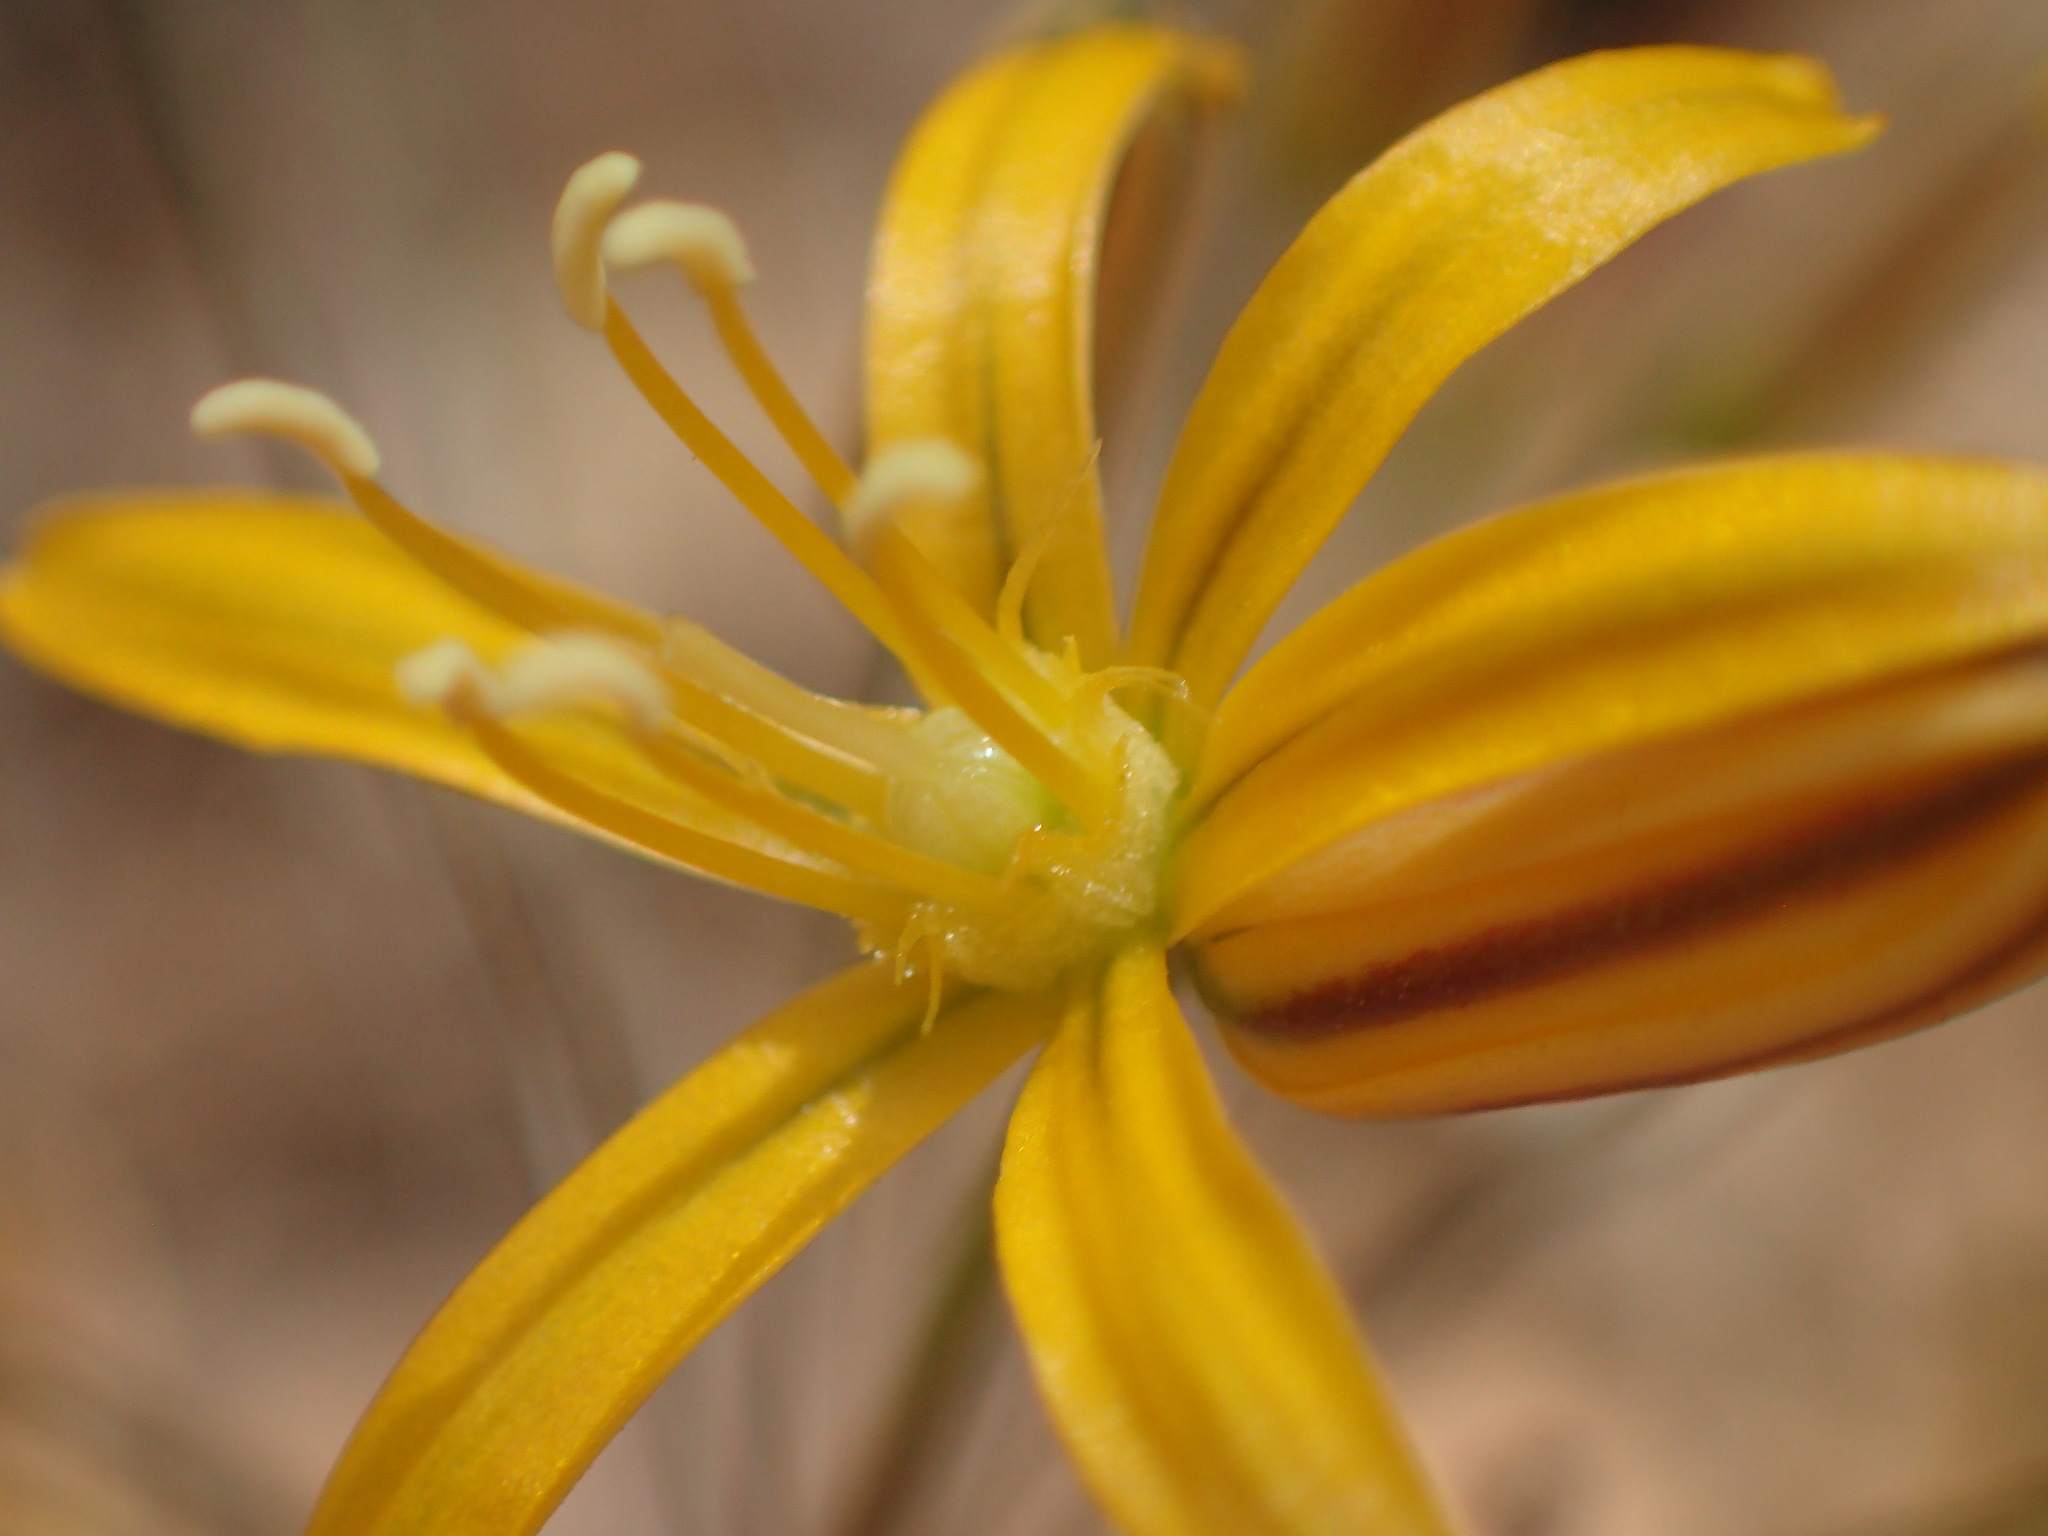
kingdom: Plantae
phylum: Tracheophyta
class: Liliopsida
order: Asparagales
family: Asparagaceae
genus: Bloomeria
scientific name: Bloomeria crocea
